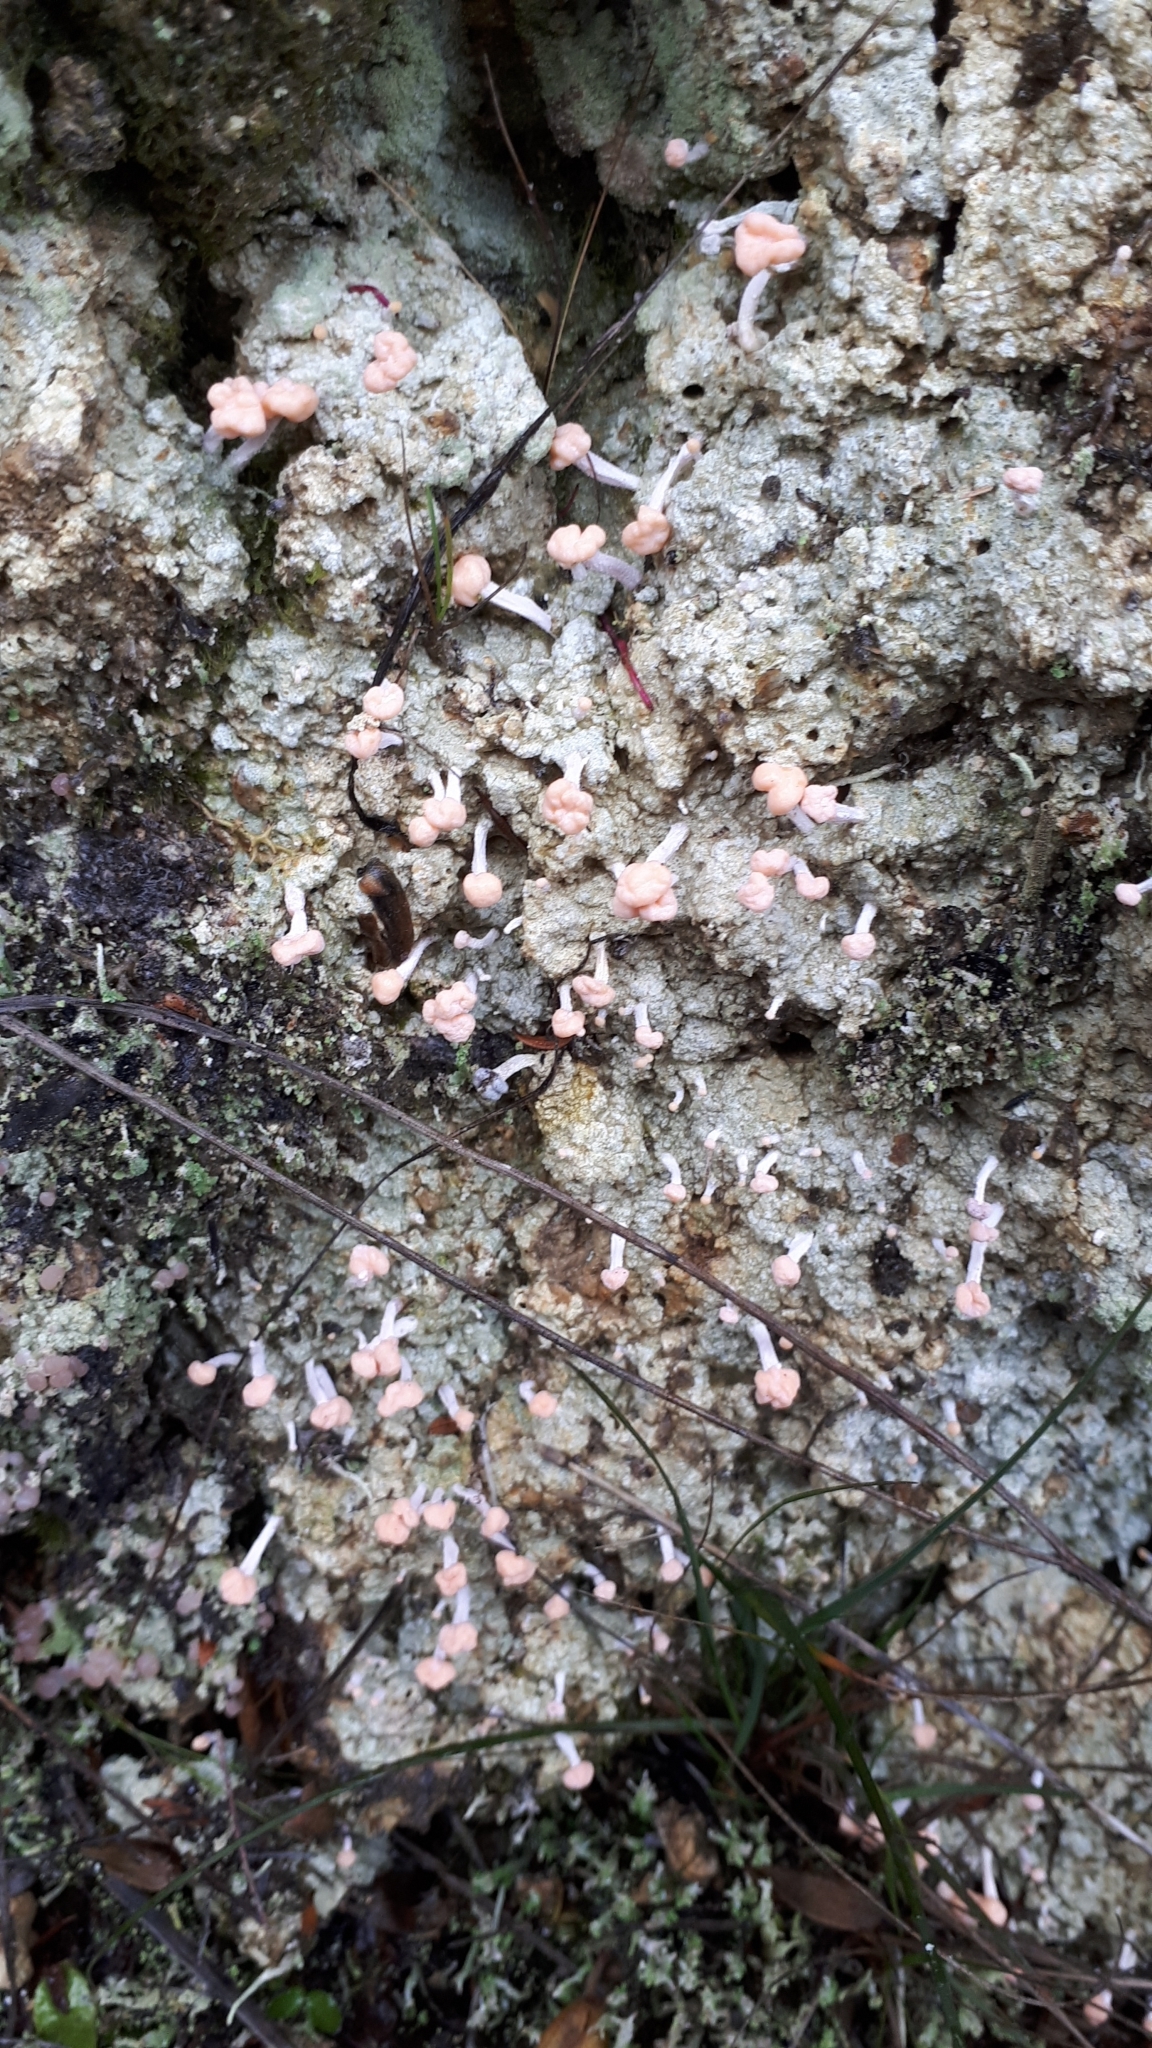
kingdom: Fungi
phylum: Ascomycota
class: Lecanoromycetes
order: Pertusariales
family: Icmadophilaceae
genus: Dibaeis
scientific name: Dibaeis arcuata
